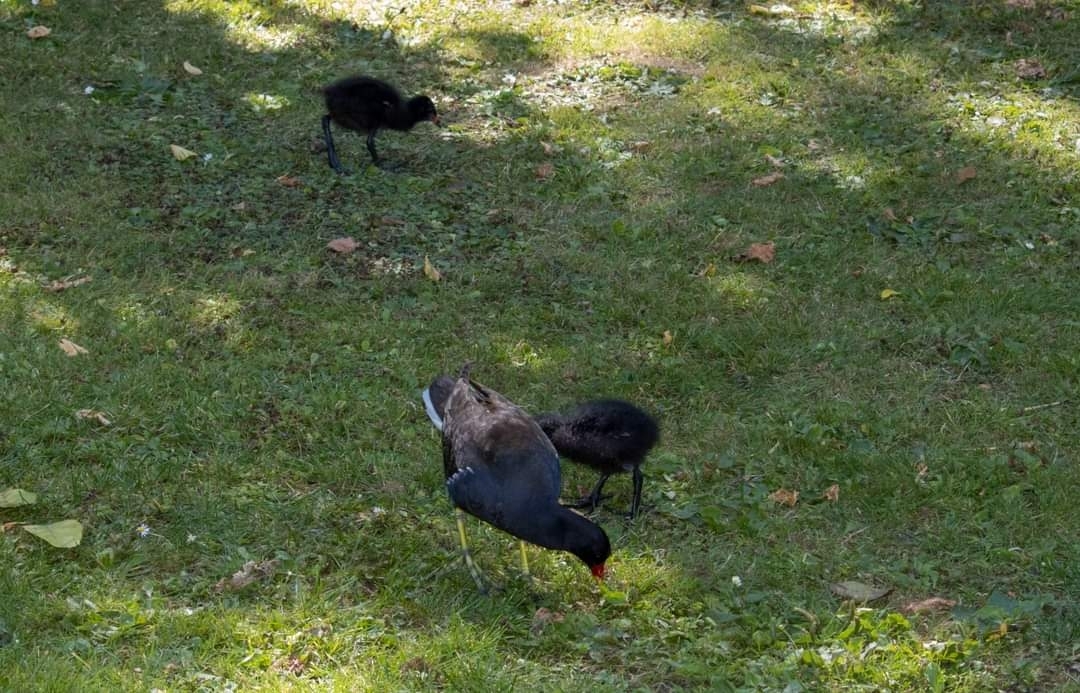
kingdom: Animalia
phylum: Chordata
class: Aves
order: Gruiformes
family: Rallidae
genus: Gallinula
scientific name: Gallinula chloropus
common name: Common moorhen
